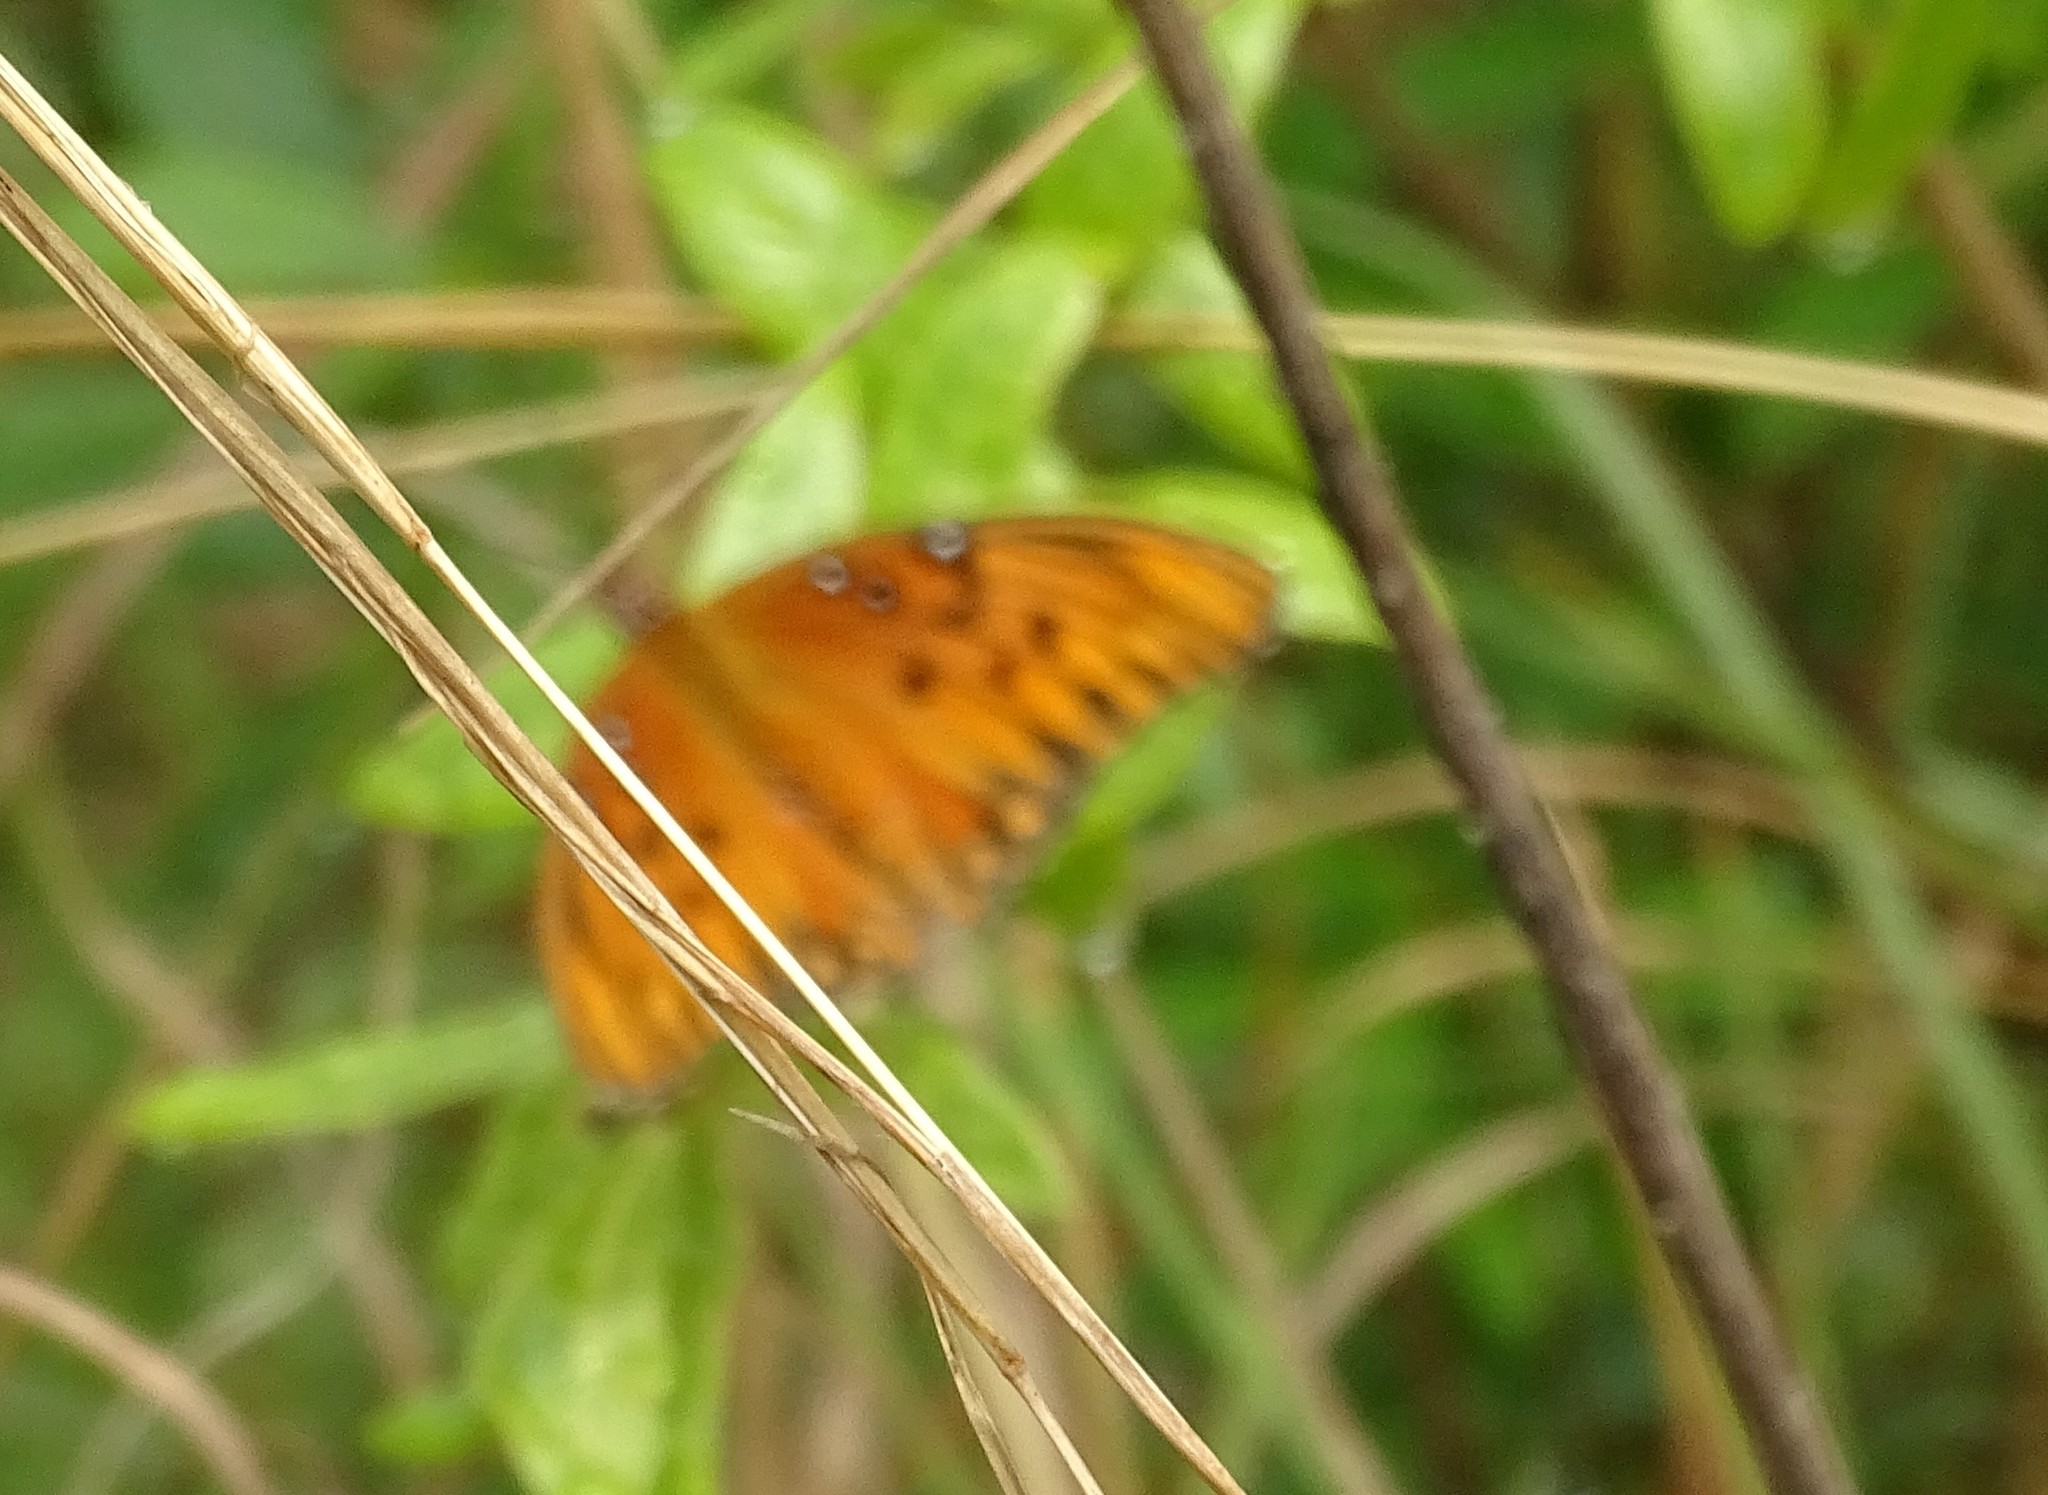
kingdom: Animalia
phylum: Arthropoda
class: Insecta
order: Lepidoptera
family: Nymphalidae
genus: Dione
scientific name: Dione vanillae
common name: Gulf fritillary
